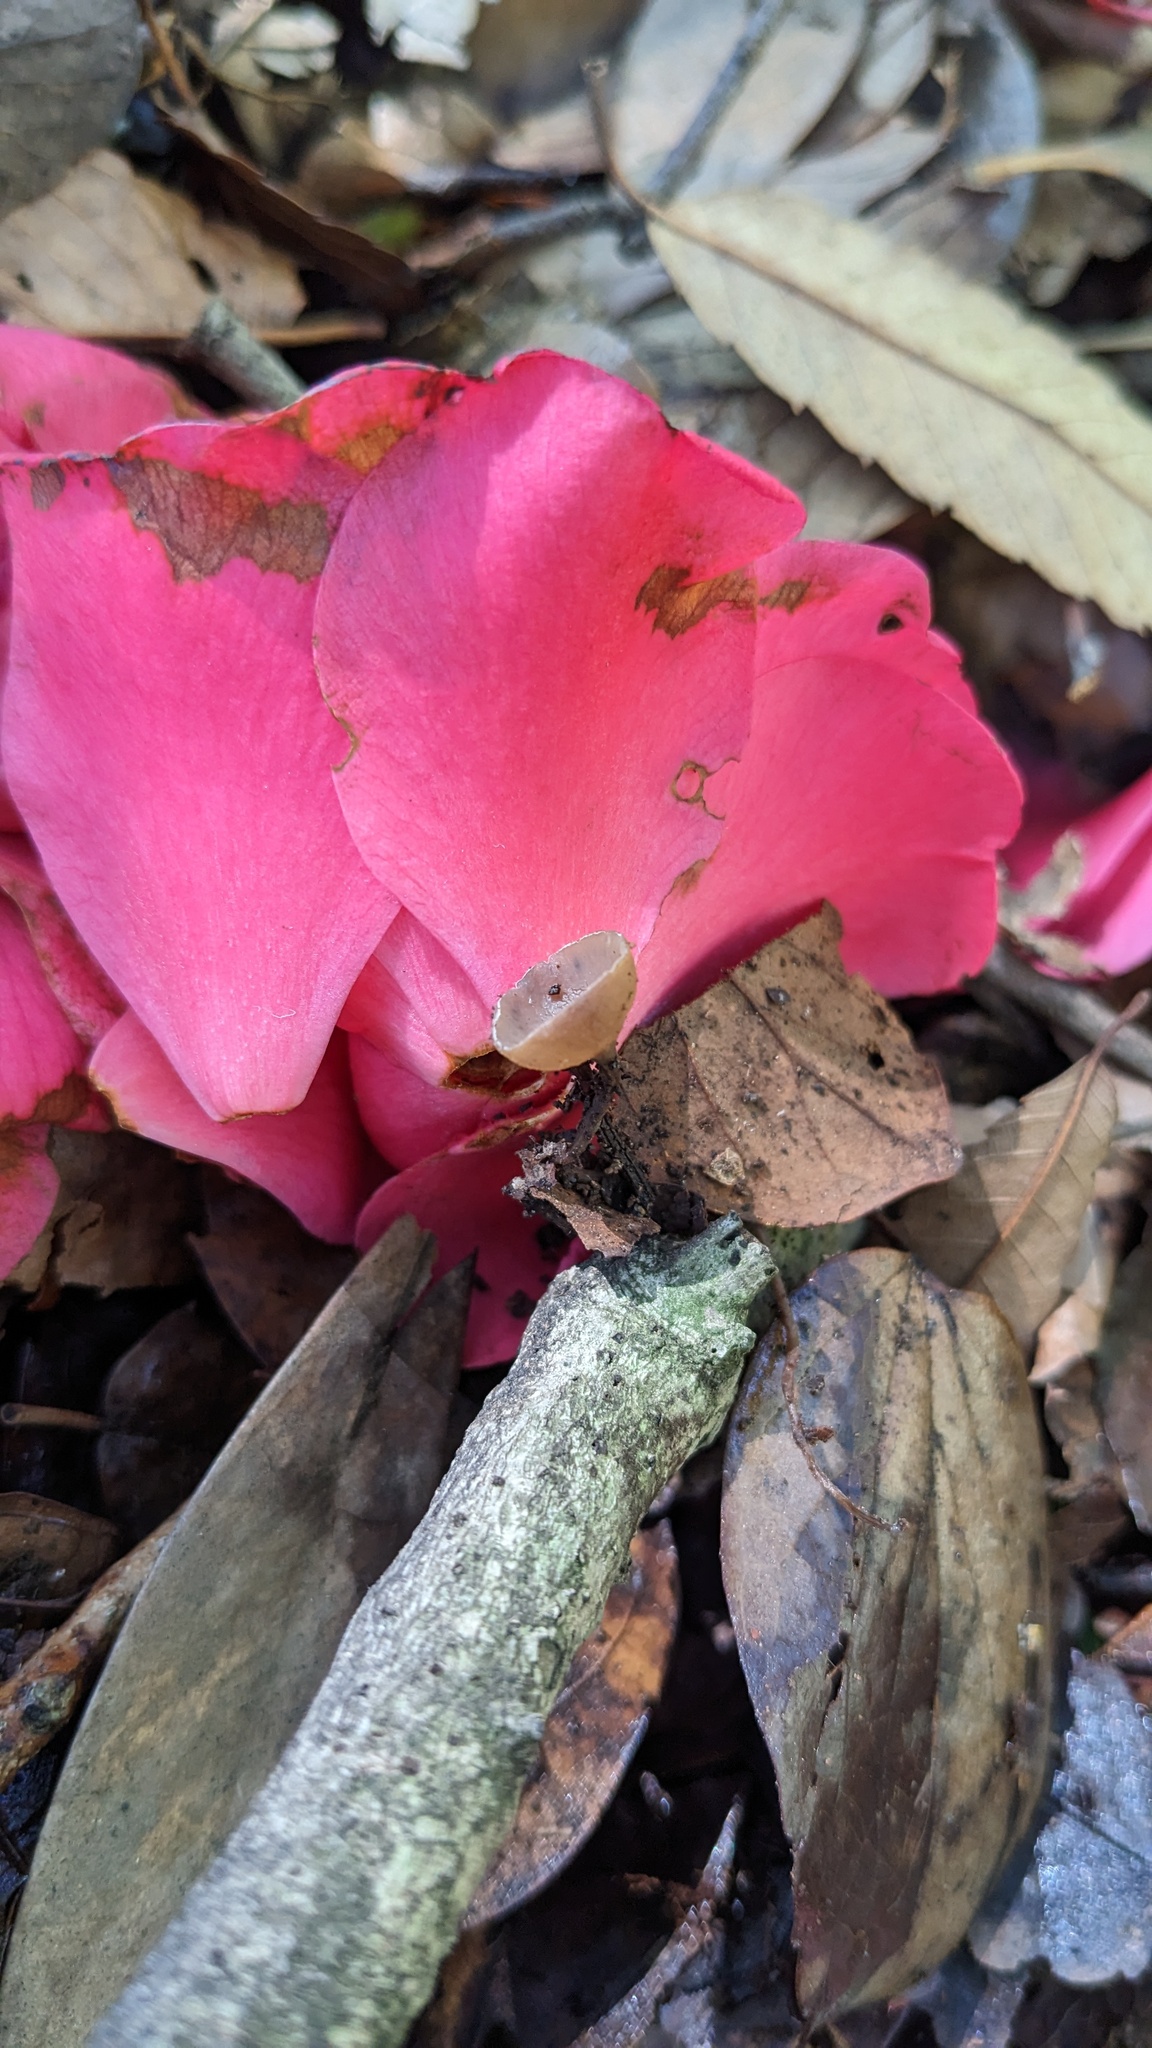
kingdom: Fungi
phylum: Ascomycota
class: Leotiomycetes
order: Helotiales
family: Sclerotiniaceae
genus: Ciborinia
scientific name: Ciborinia camelliae
